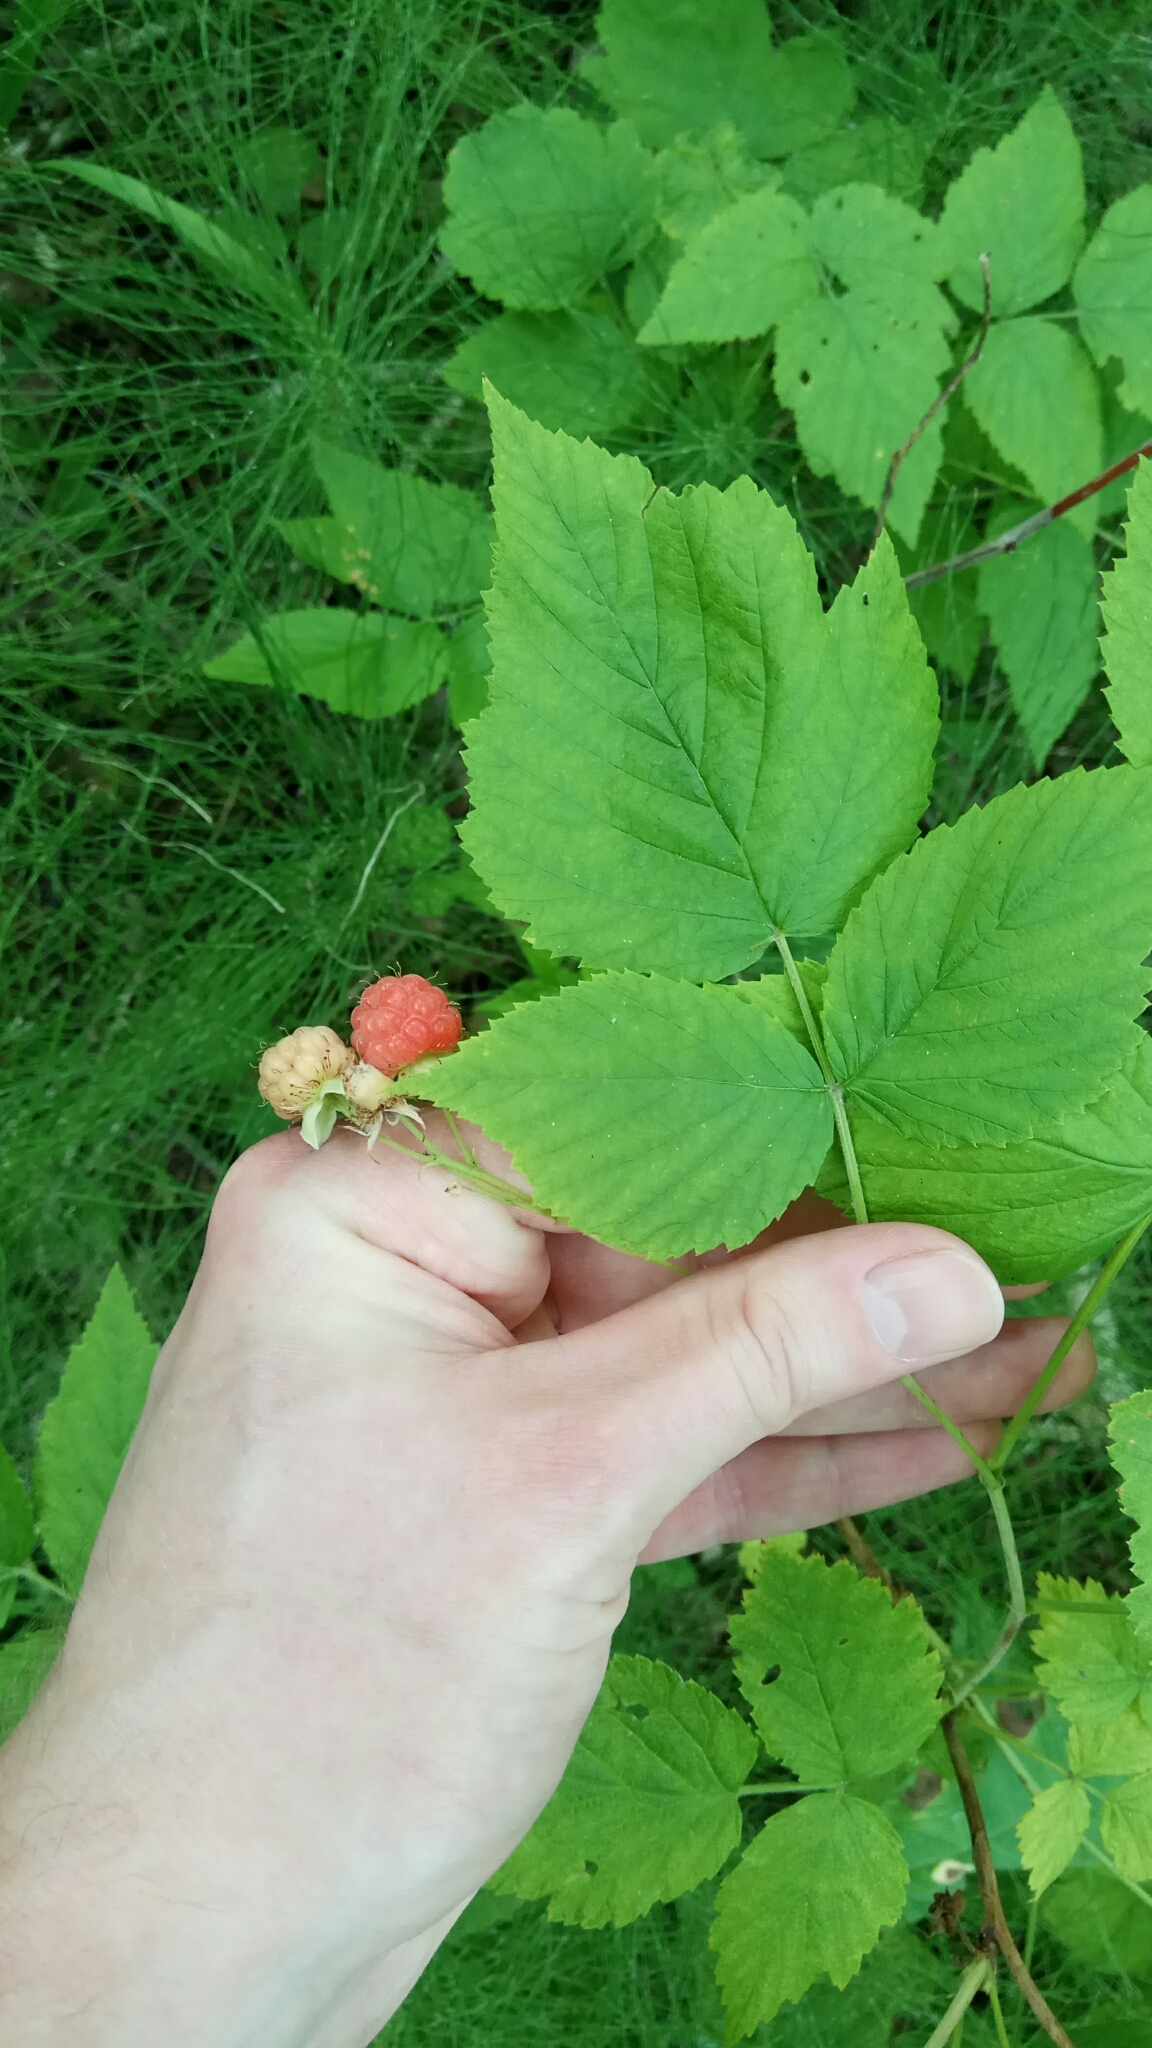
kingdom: Plantae
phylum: Tracheophyta
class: Magnoliopsida
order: Rosales
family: Rosaceae
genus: Rubus
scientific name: Rubus idaeus
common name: Raspberry
